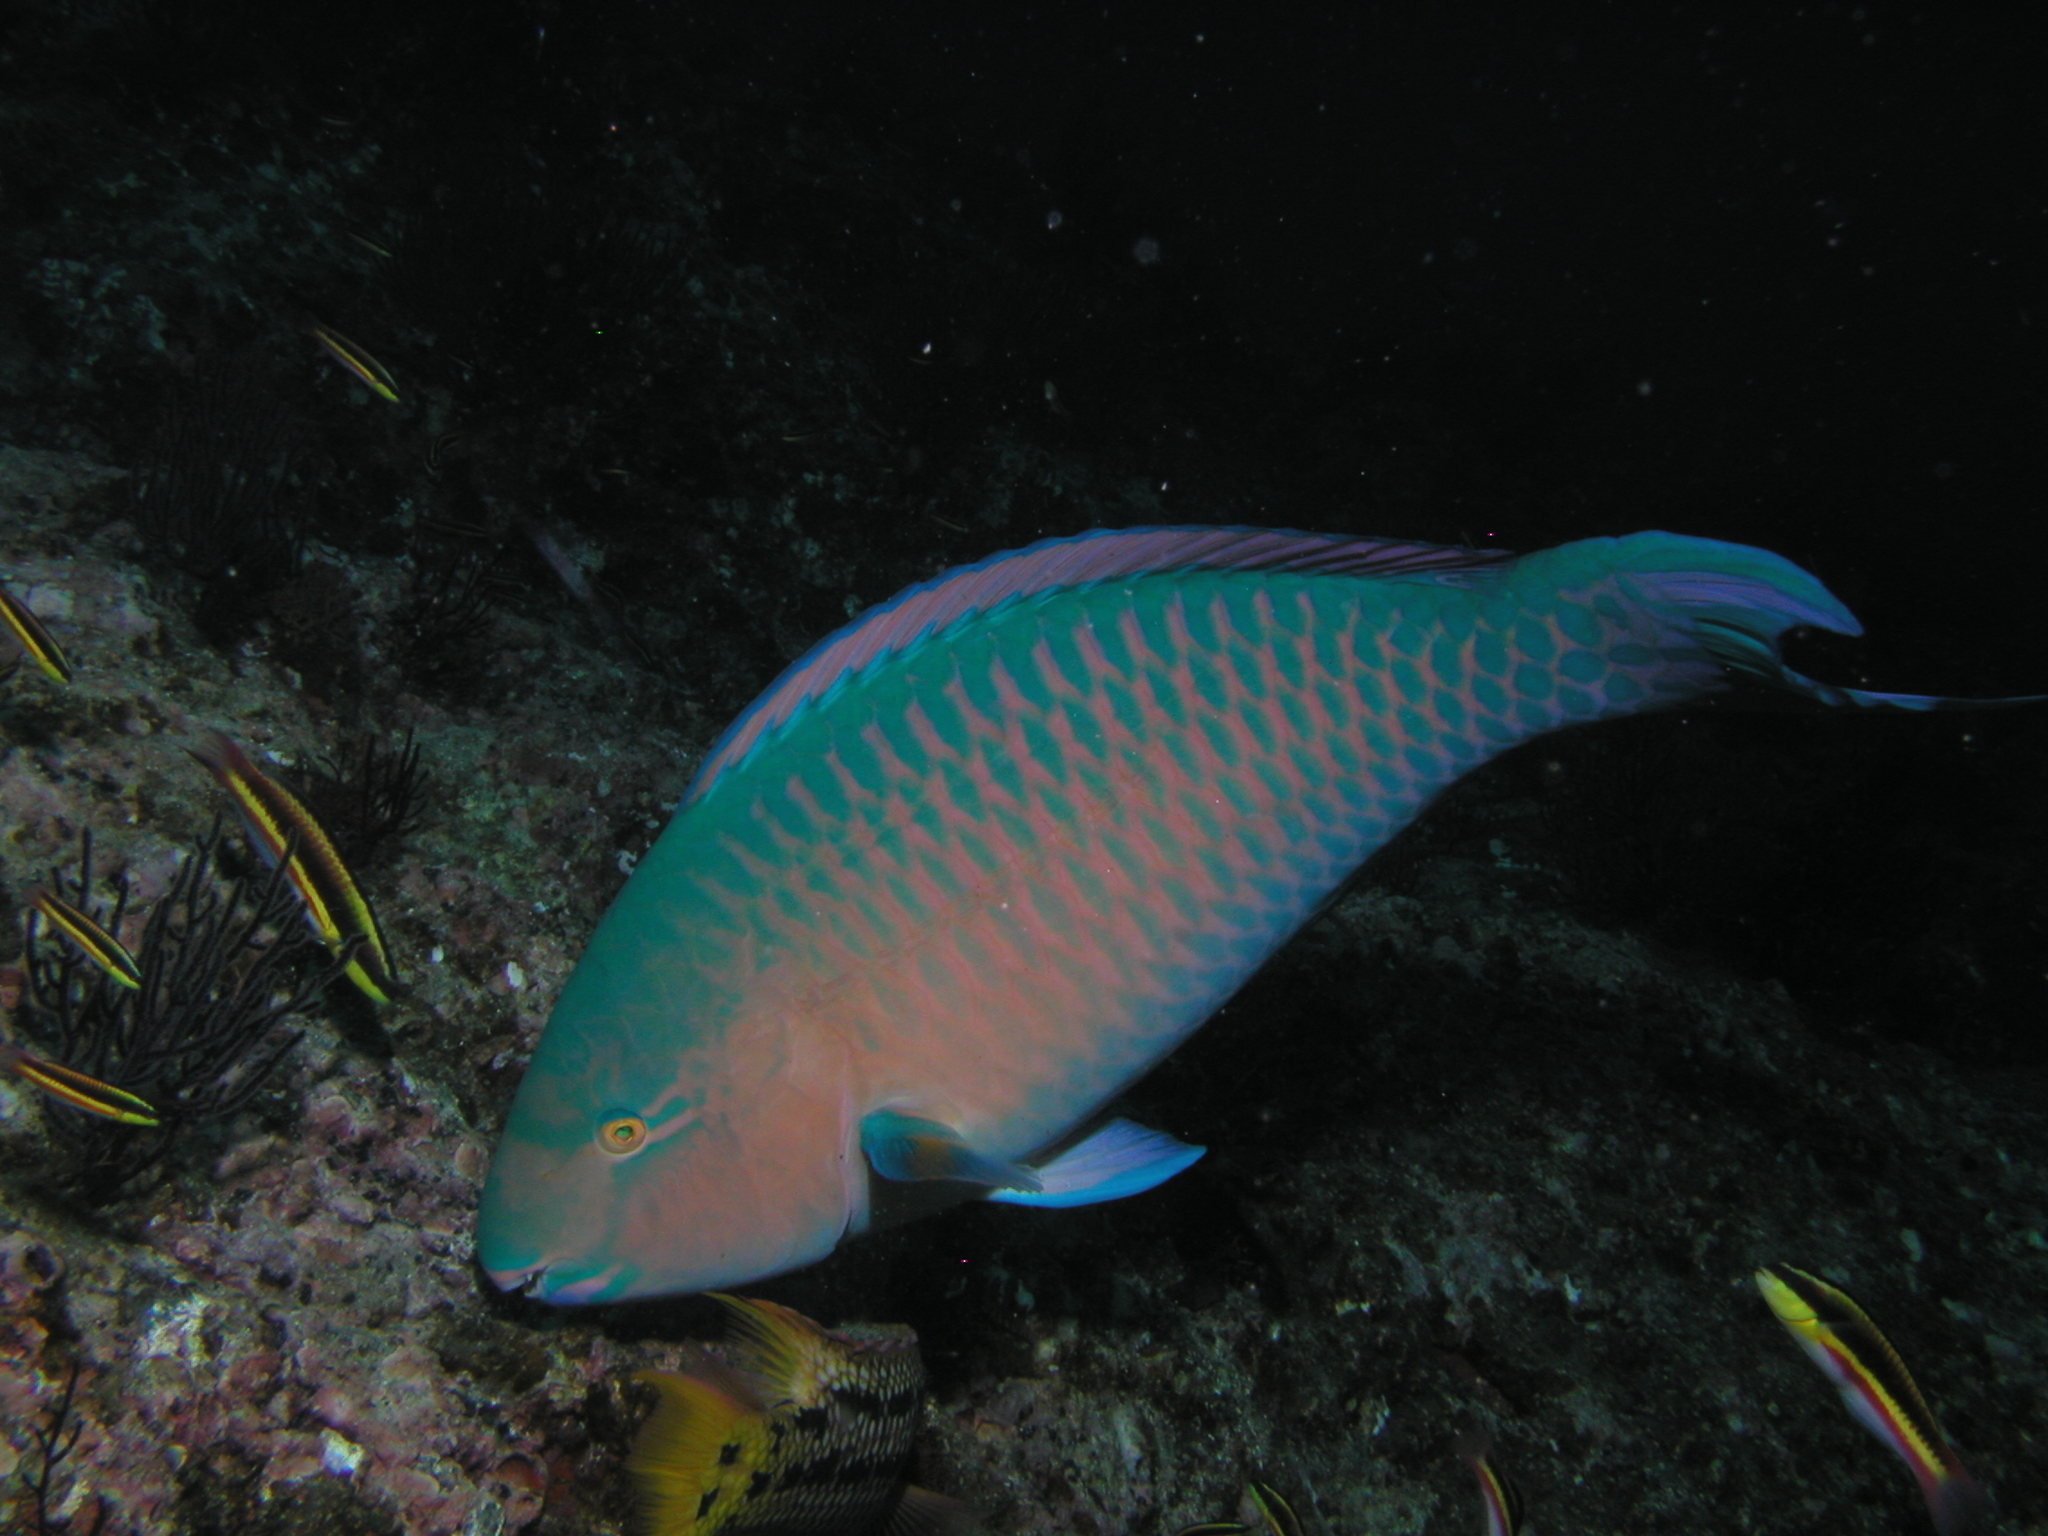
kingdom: Animalia
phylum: Chordata
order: Perciformes
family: Scaridae
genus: Scarus
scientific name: Scarus ghobban
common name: Blue-barred parrotfish
